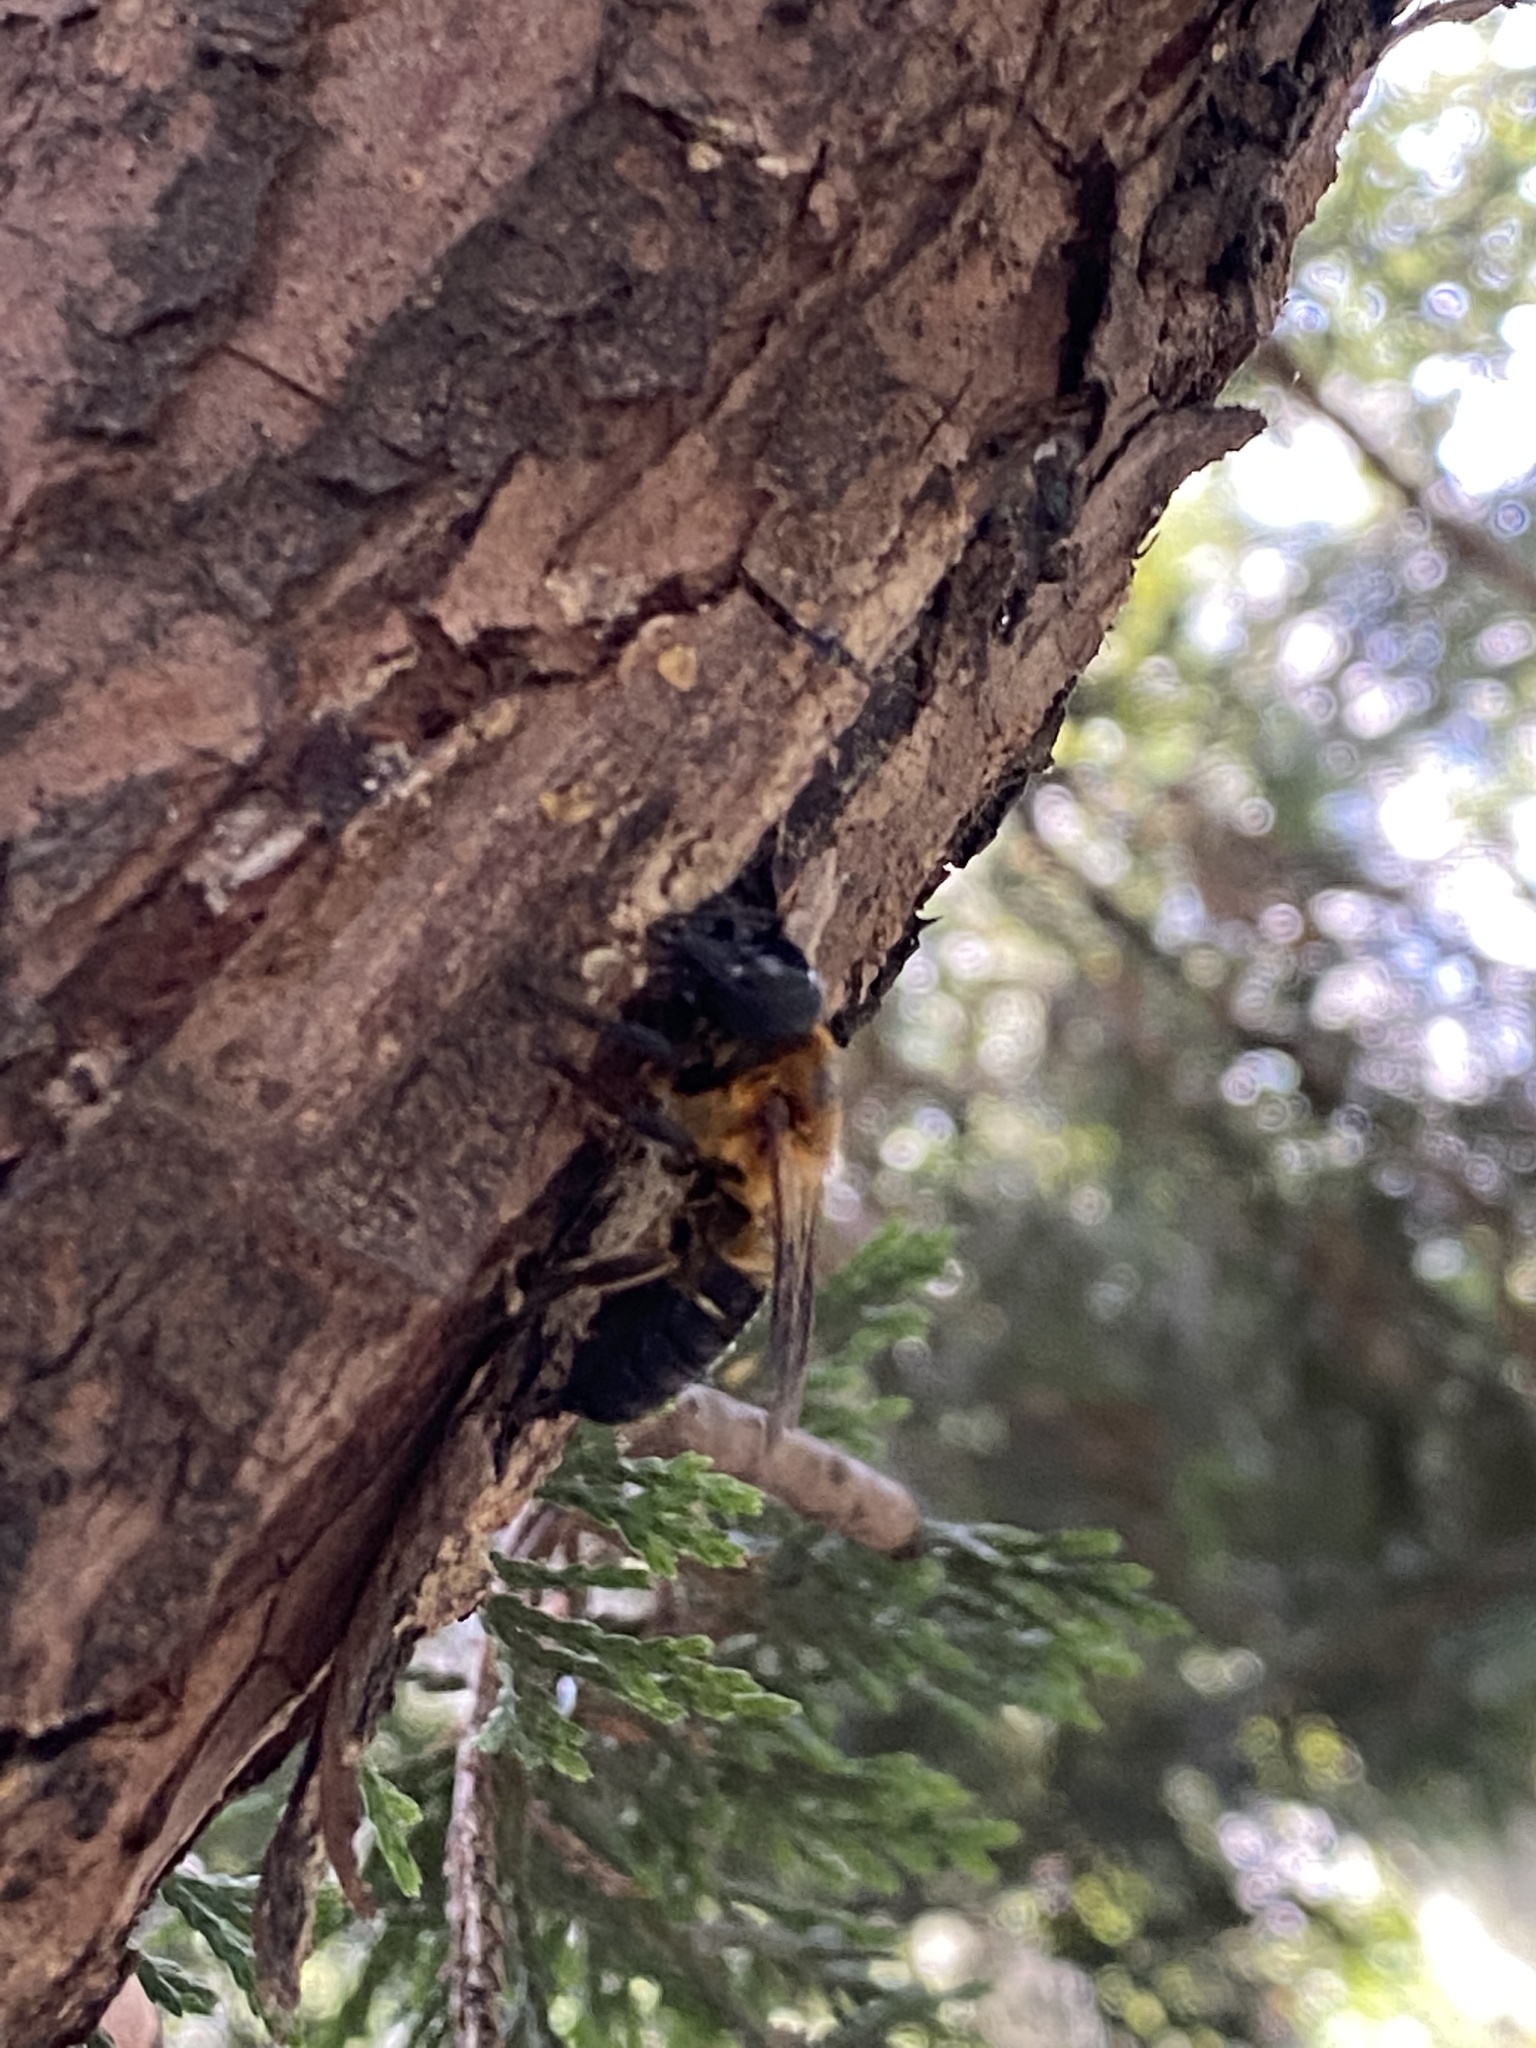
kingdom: Animalia
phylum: Arthropoda
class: Insecta
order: Hymenoptera
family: Megachilidae
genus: Megachile
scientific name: Megachile sculpturalis
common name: Sculptured resin bee
